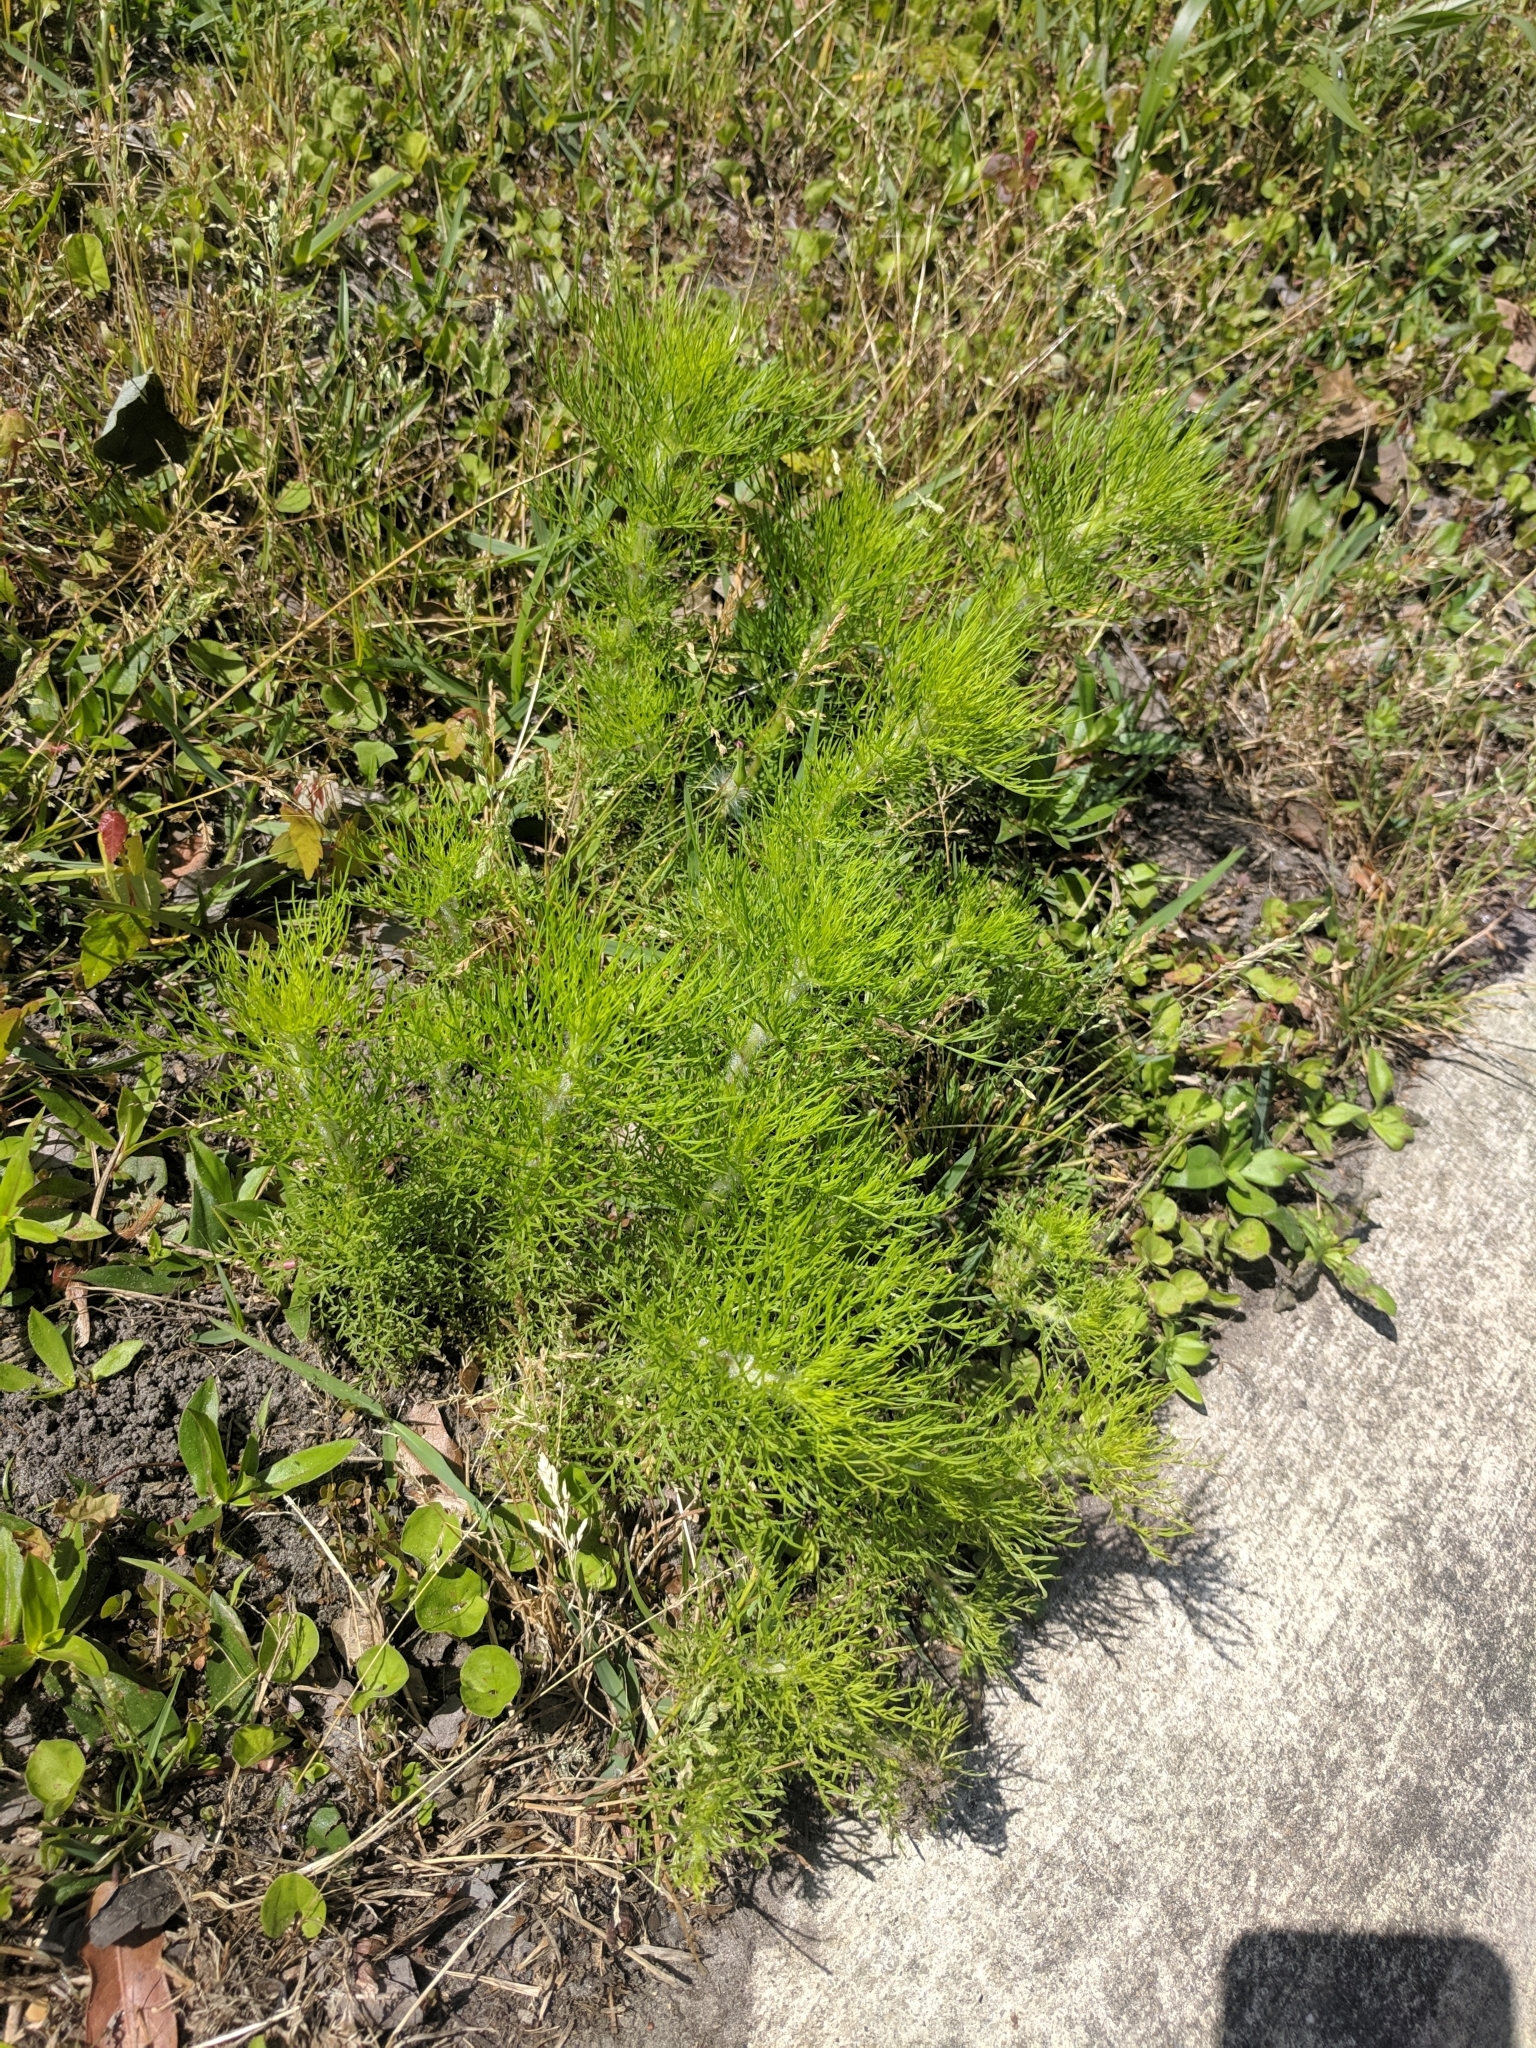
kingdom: Plantae
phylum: Tracheophyta
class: Magnoliopsida
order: Asterales
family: Asteraceae
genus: Eupatorium
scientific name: Eupatorium capillifolium
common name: Dog-fennel
